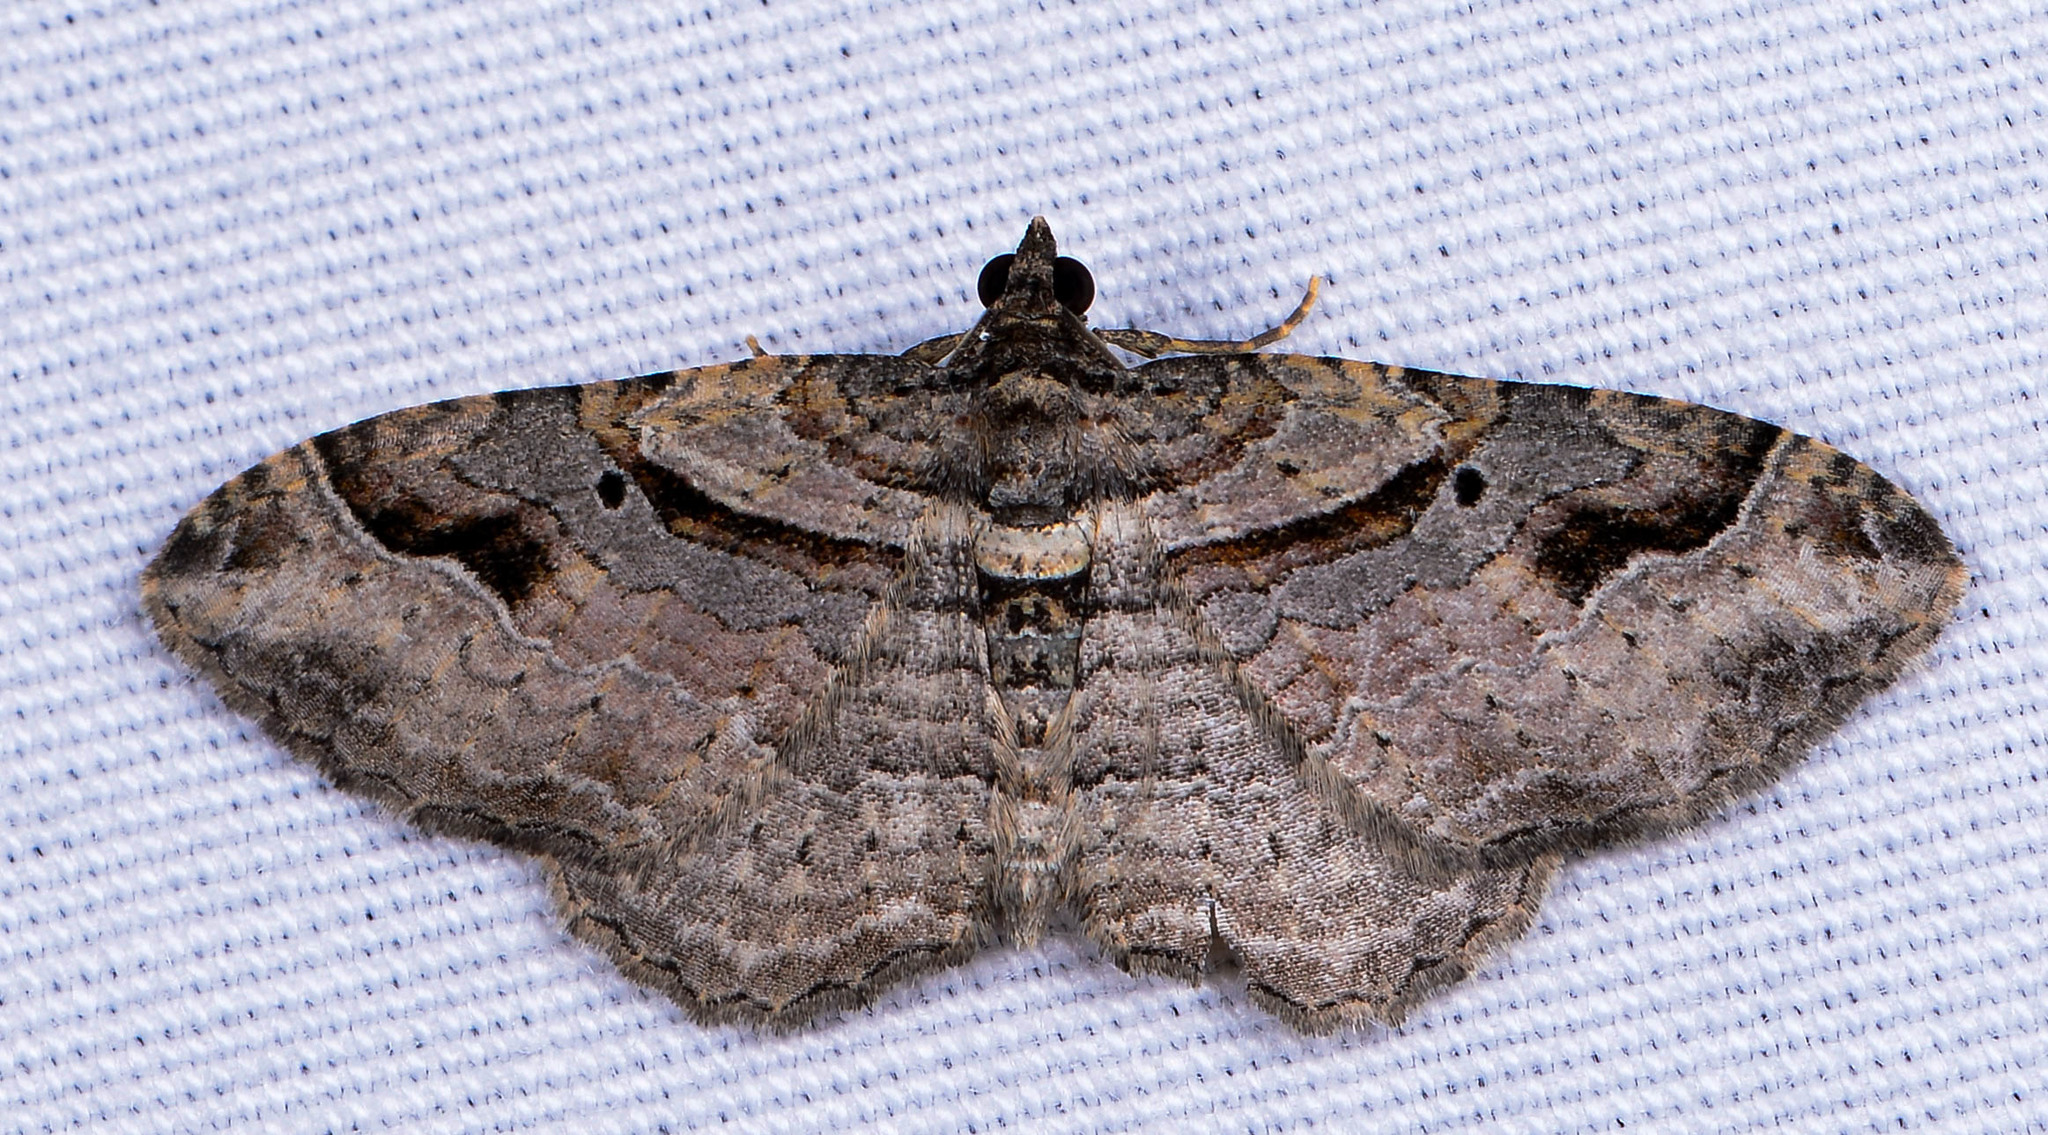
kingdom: Animalia
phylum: Arthropoda
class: Insecta
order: Lepidoptera
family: Geometridae
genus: Costaconvexa
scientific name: Costaconvexa centrostrigaria
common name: Bent-line carpet
